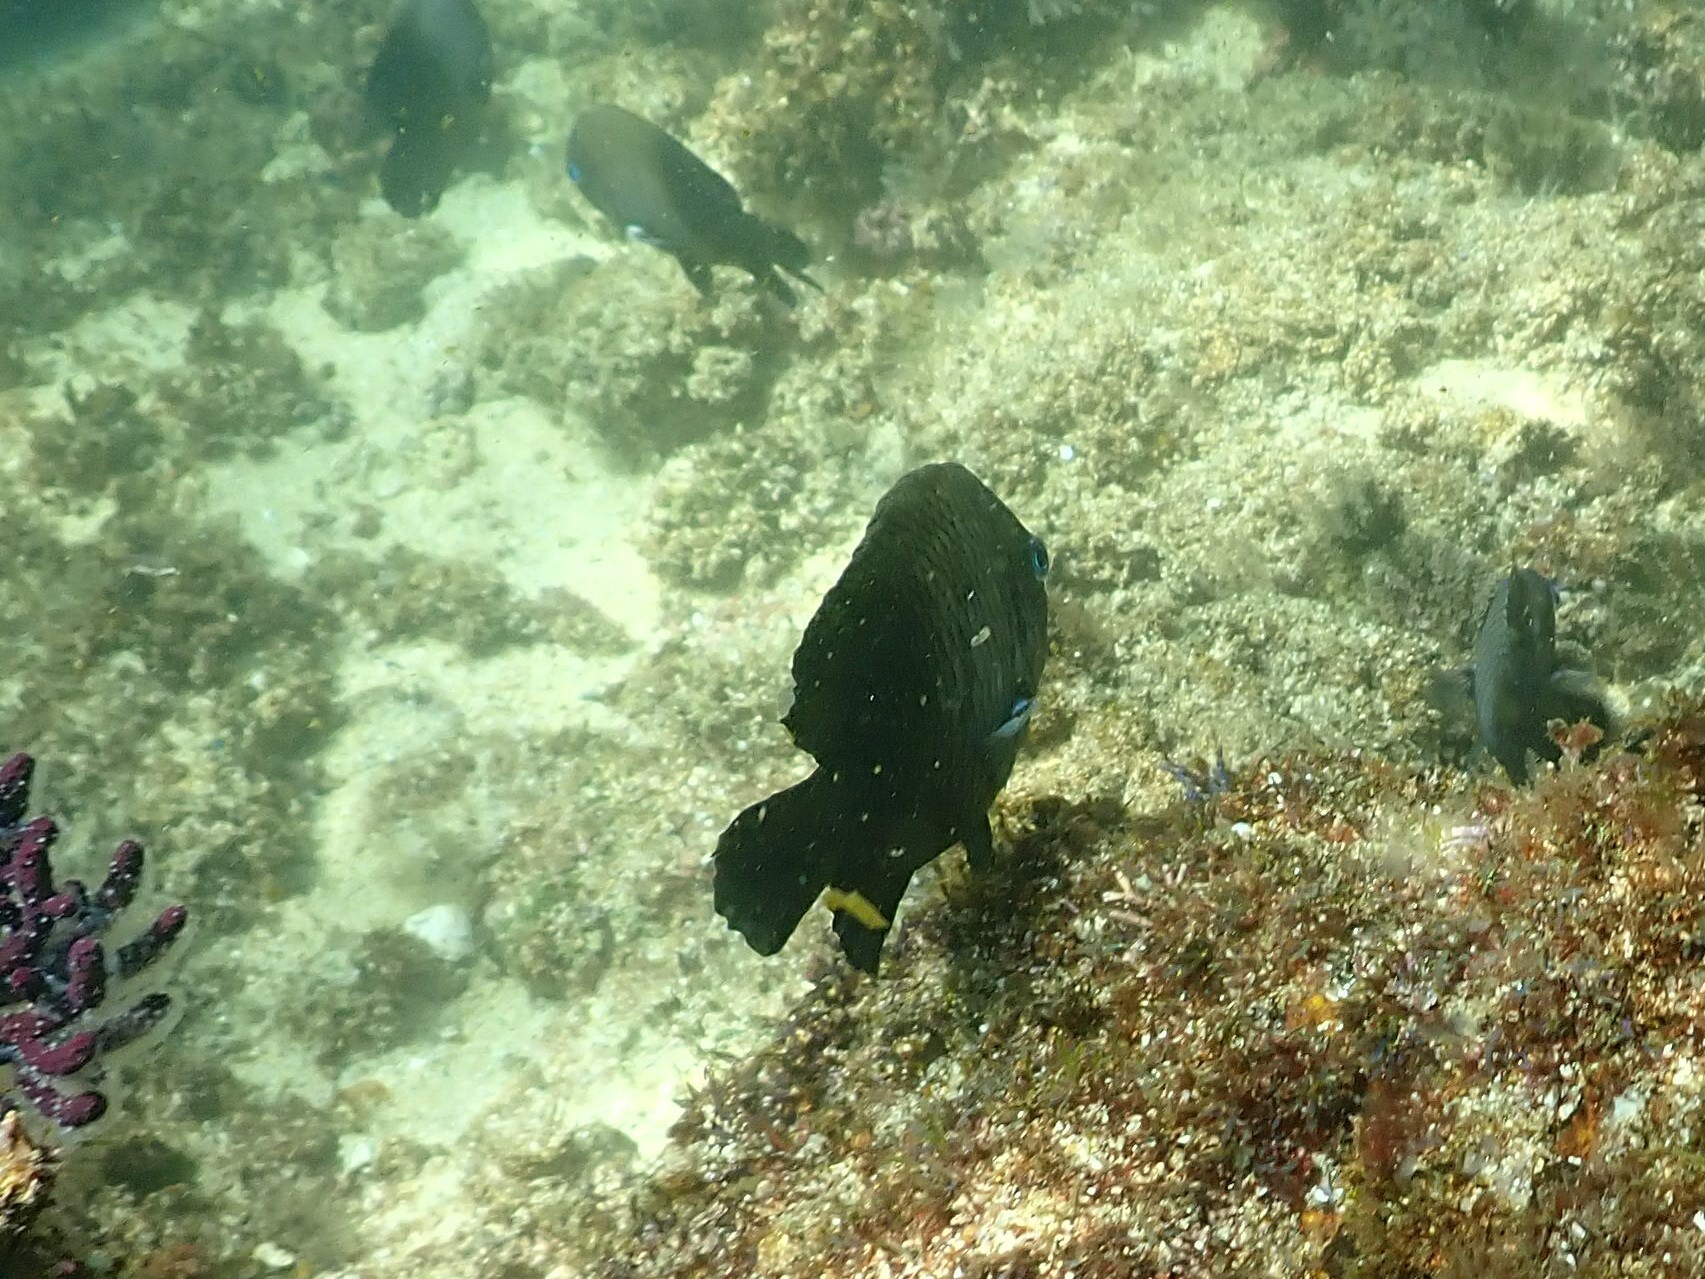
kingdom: Animalia
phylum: Chordata
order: Perciformes
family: Pomacentridae
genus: Stegastes
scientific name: Stegastes acapulcoensis
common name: Acapulco damselfish
